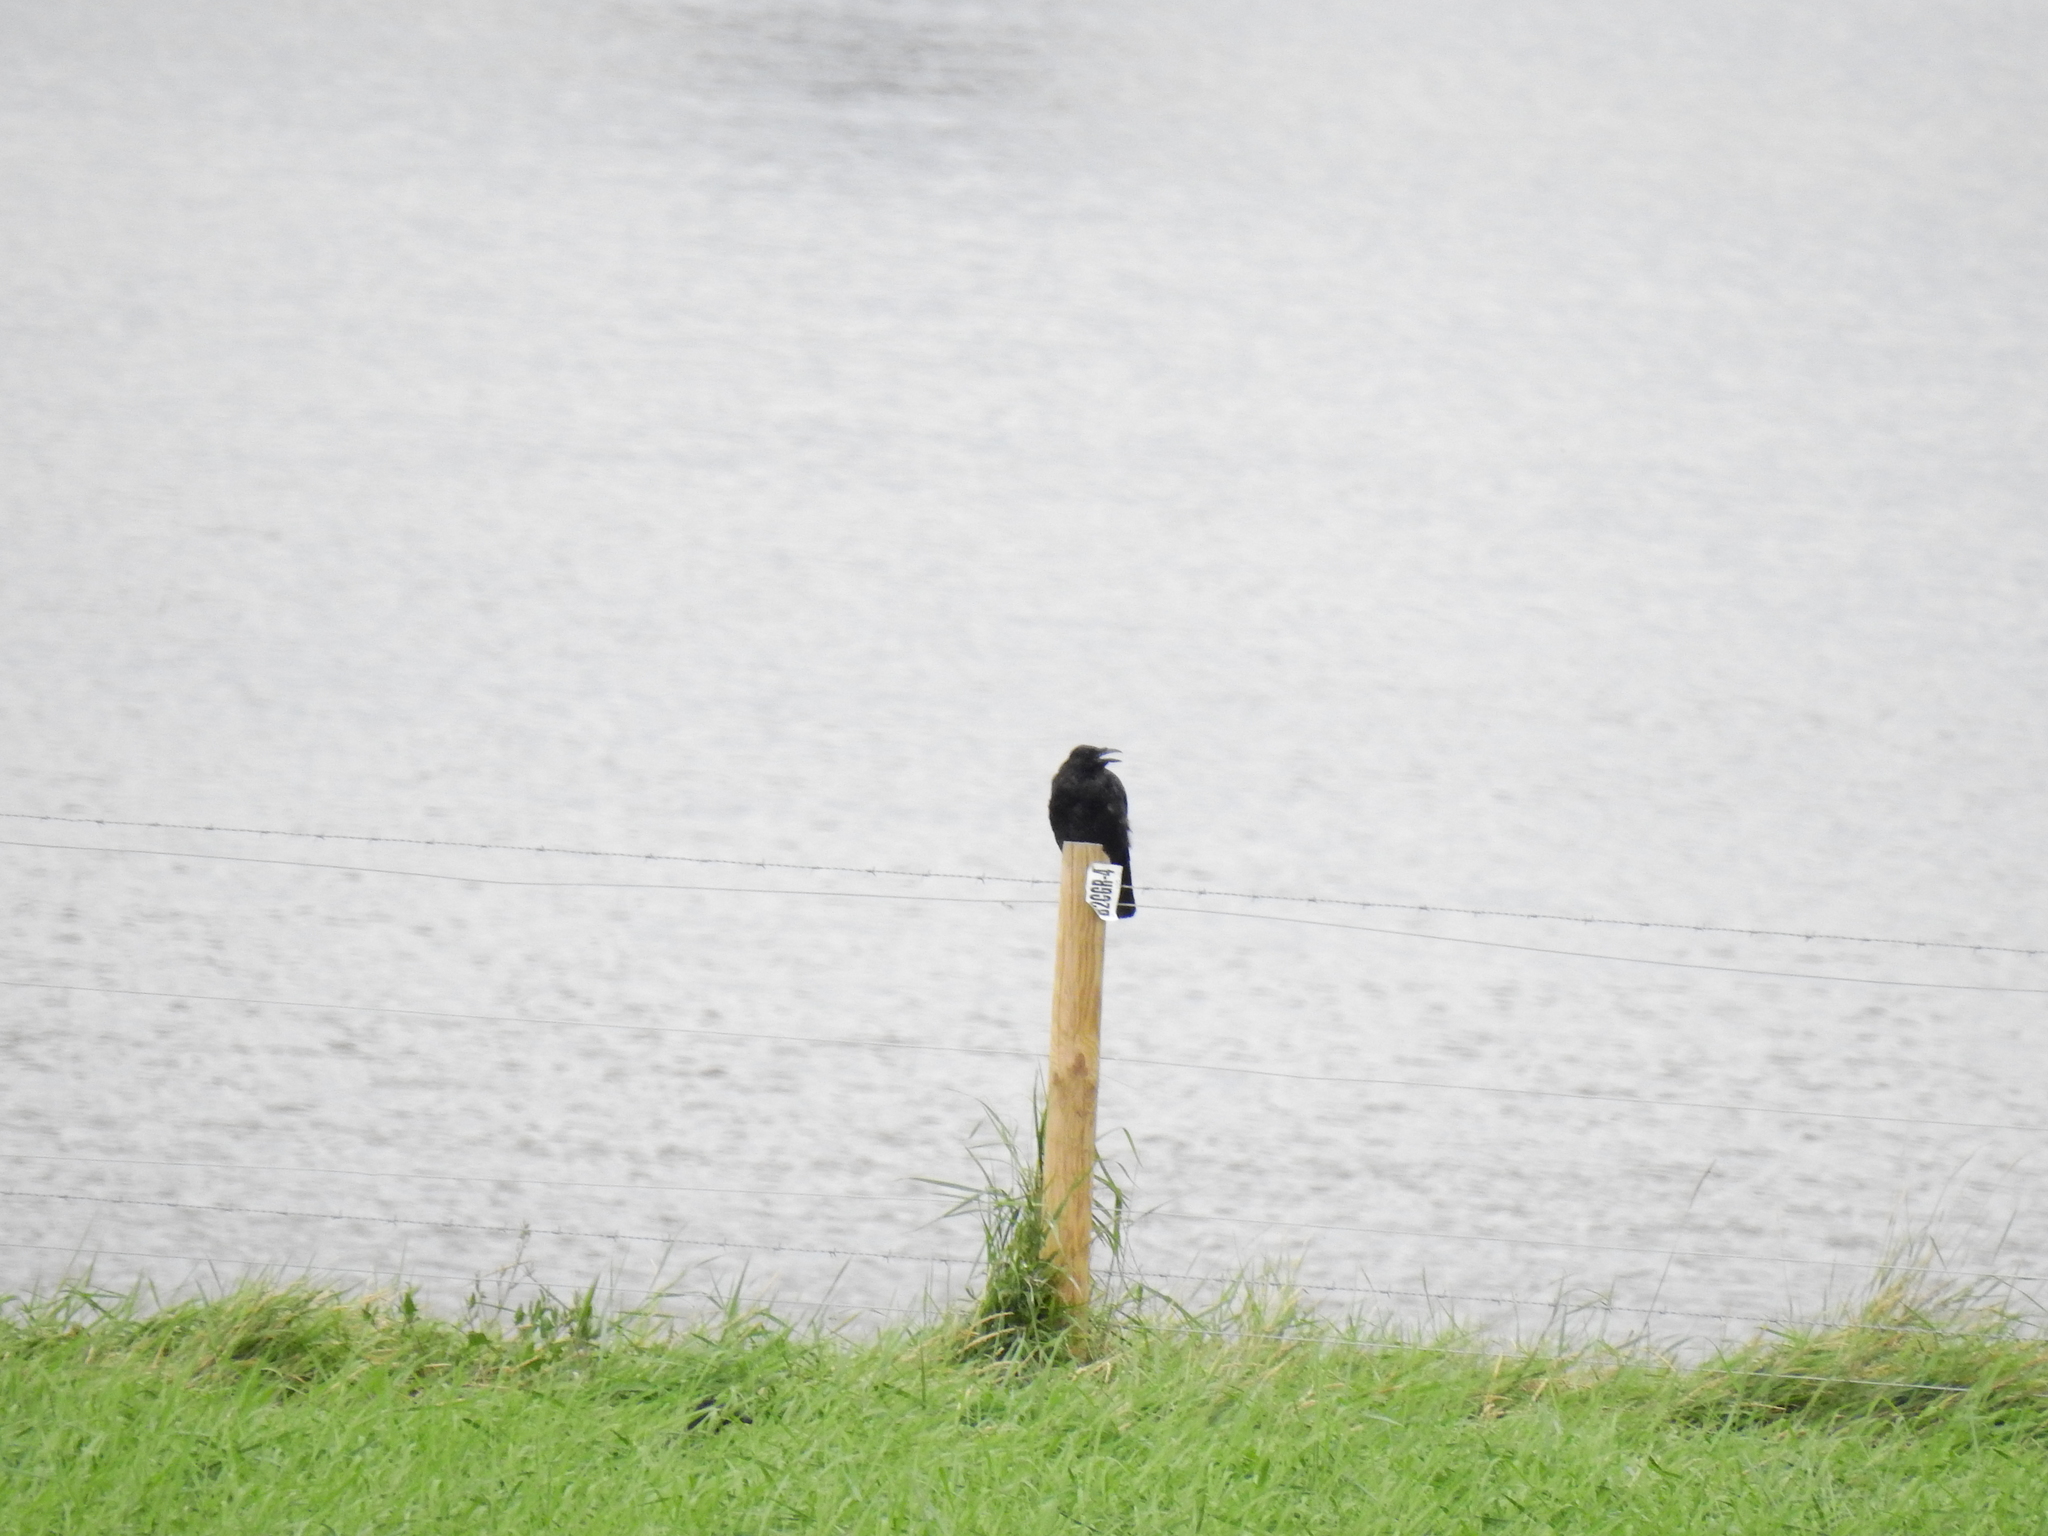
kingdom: Animalia
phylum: Chordata
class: Aves
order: Passeriformes
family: Corvidae
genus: Corvus
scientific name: Corvus corone
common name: Carrion crow
